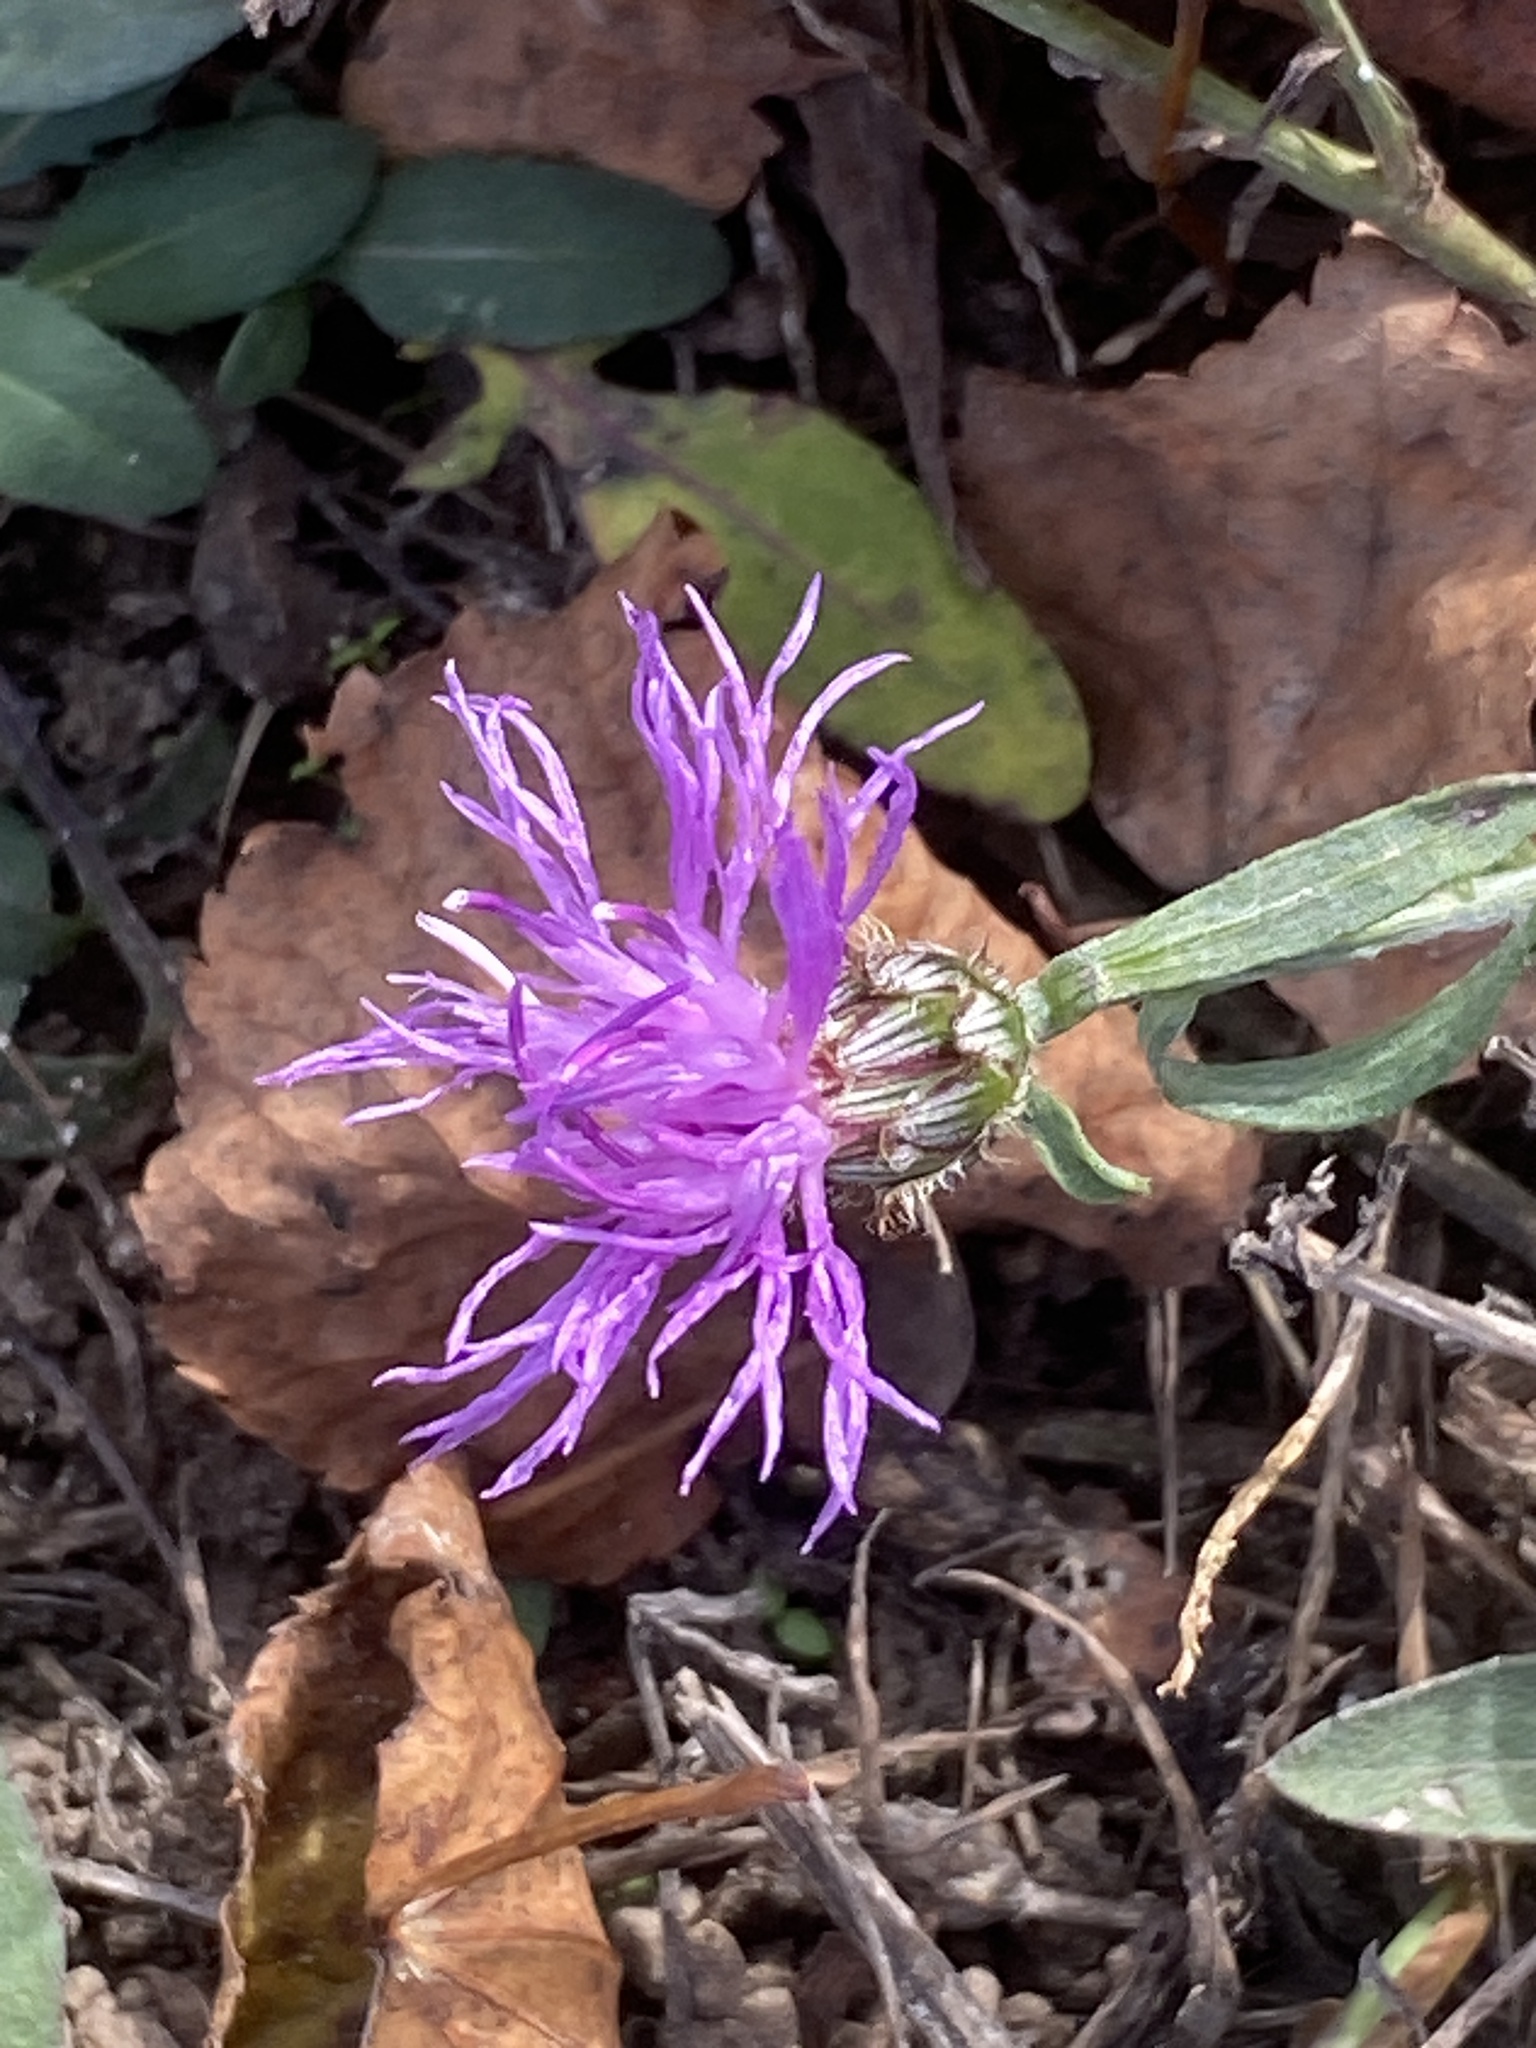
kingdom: Plantae
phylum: Tracheophyta
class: Magnoliopsida
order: Asterales
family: Asteraceae
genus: Centaurea
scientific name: Centaurea stoebe
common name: Spotted knapweed
